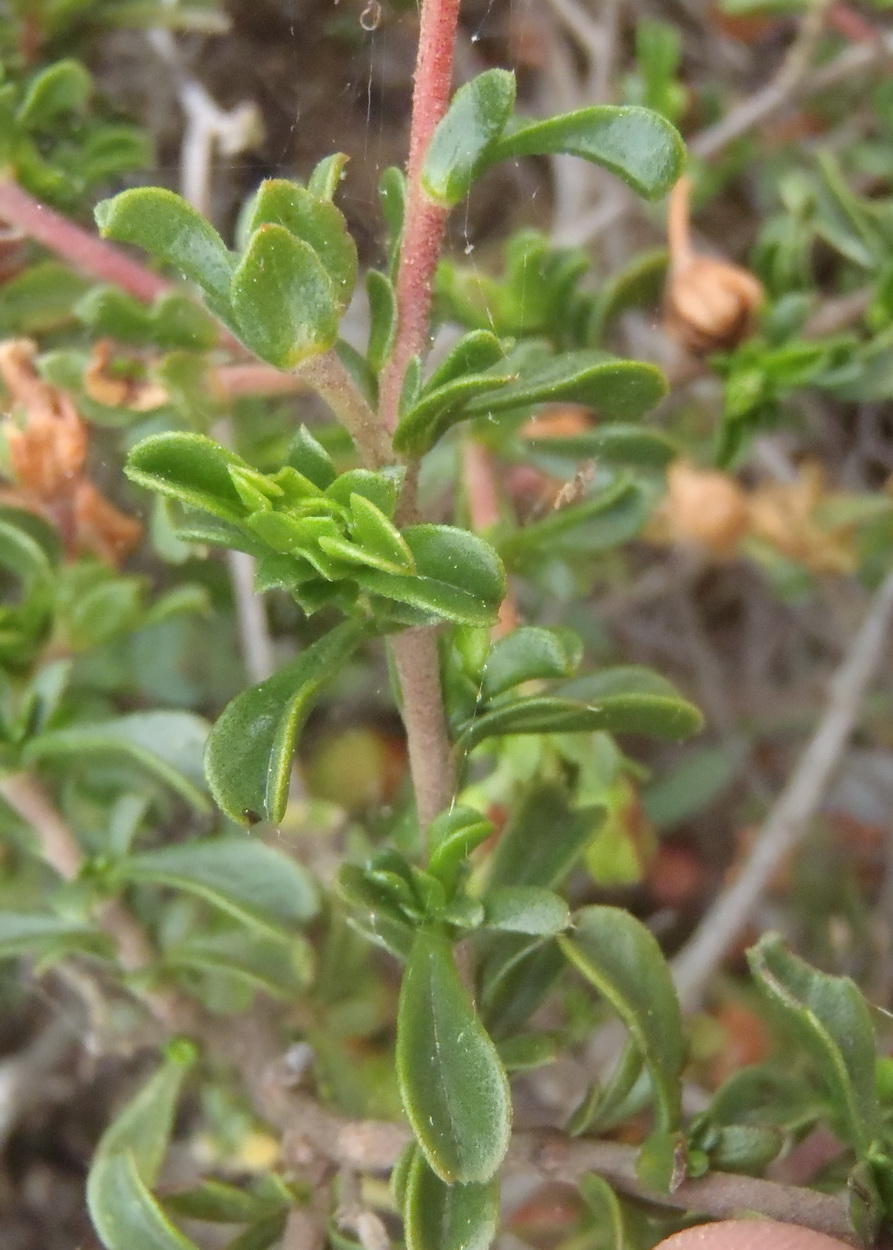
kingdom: Plantae
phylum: Tracheophyta
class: Magnoliopsida
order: Malvales
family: Malvaceae
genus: Hermannia
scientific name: Hermannia flammea
